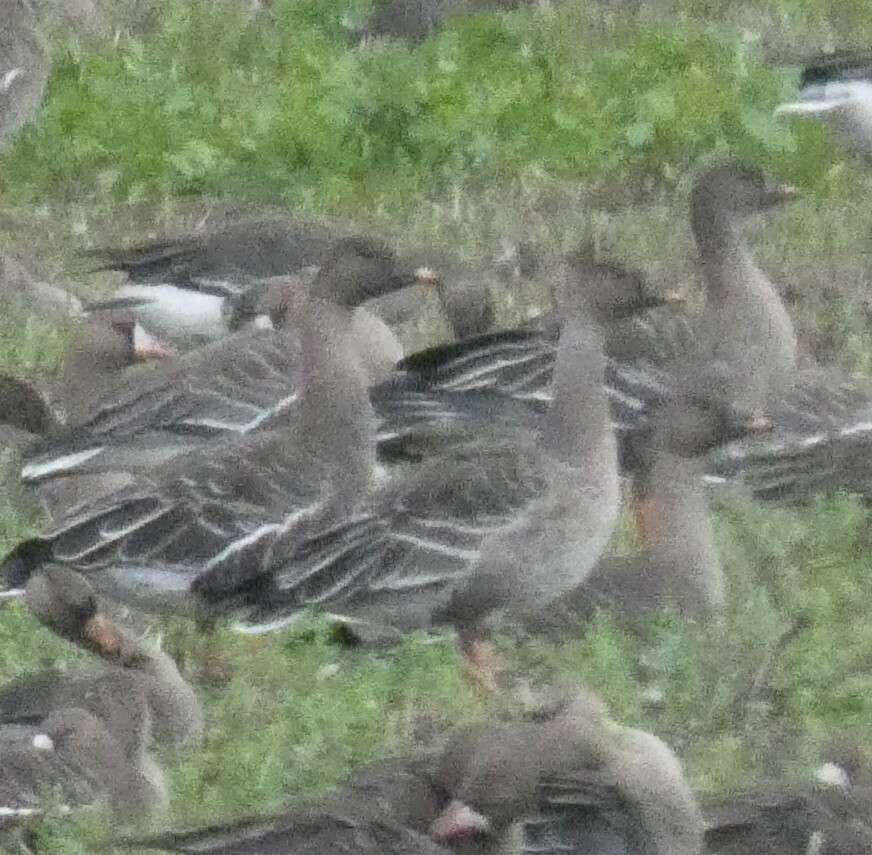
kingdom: Animalia
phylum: Chordata
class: Aves
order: Anseriformes
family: Anatidae
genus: Anser
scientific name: Anser serrirostris
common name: Tundra bean goose
